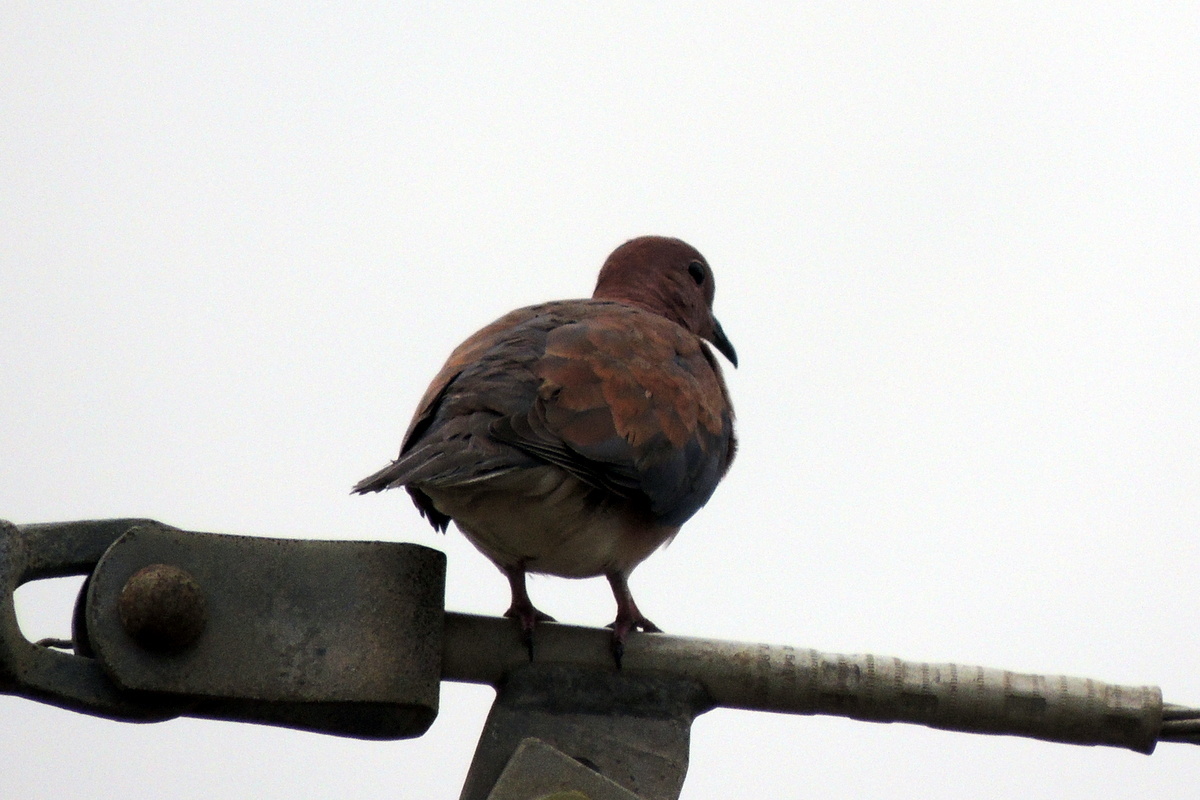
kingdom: Animalia
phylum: Chordata
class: Aves
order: Columbiformes
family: Columbidae
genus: Spilopelia
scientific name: Spilopelia senegalensis
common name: Laughing dove
